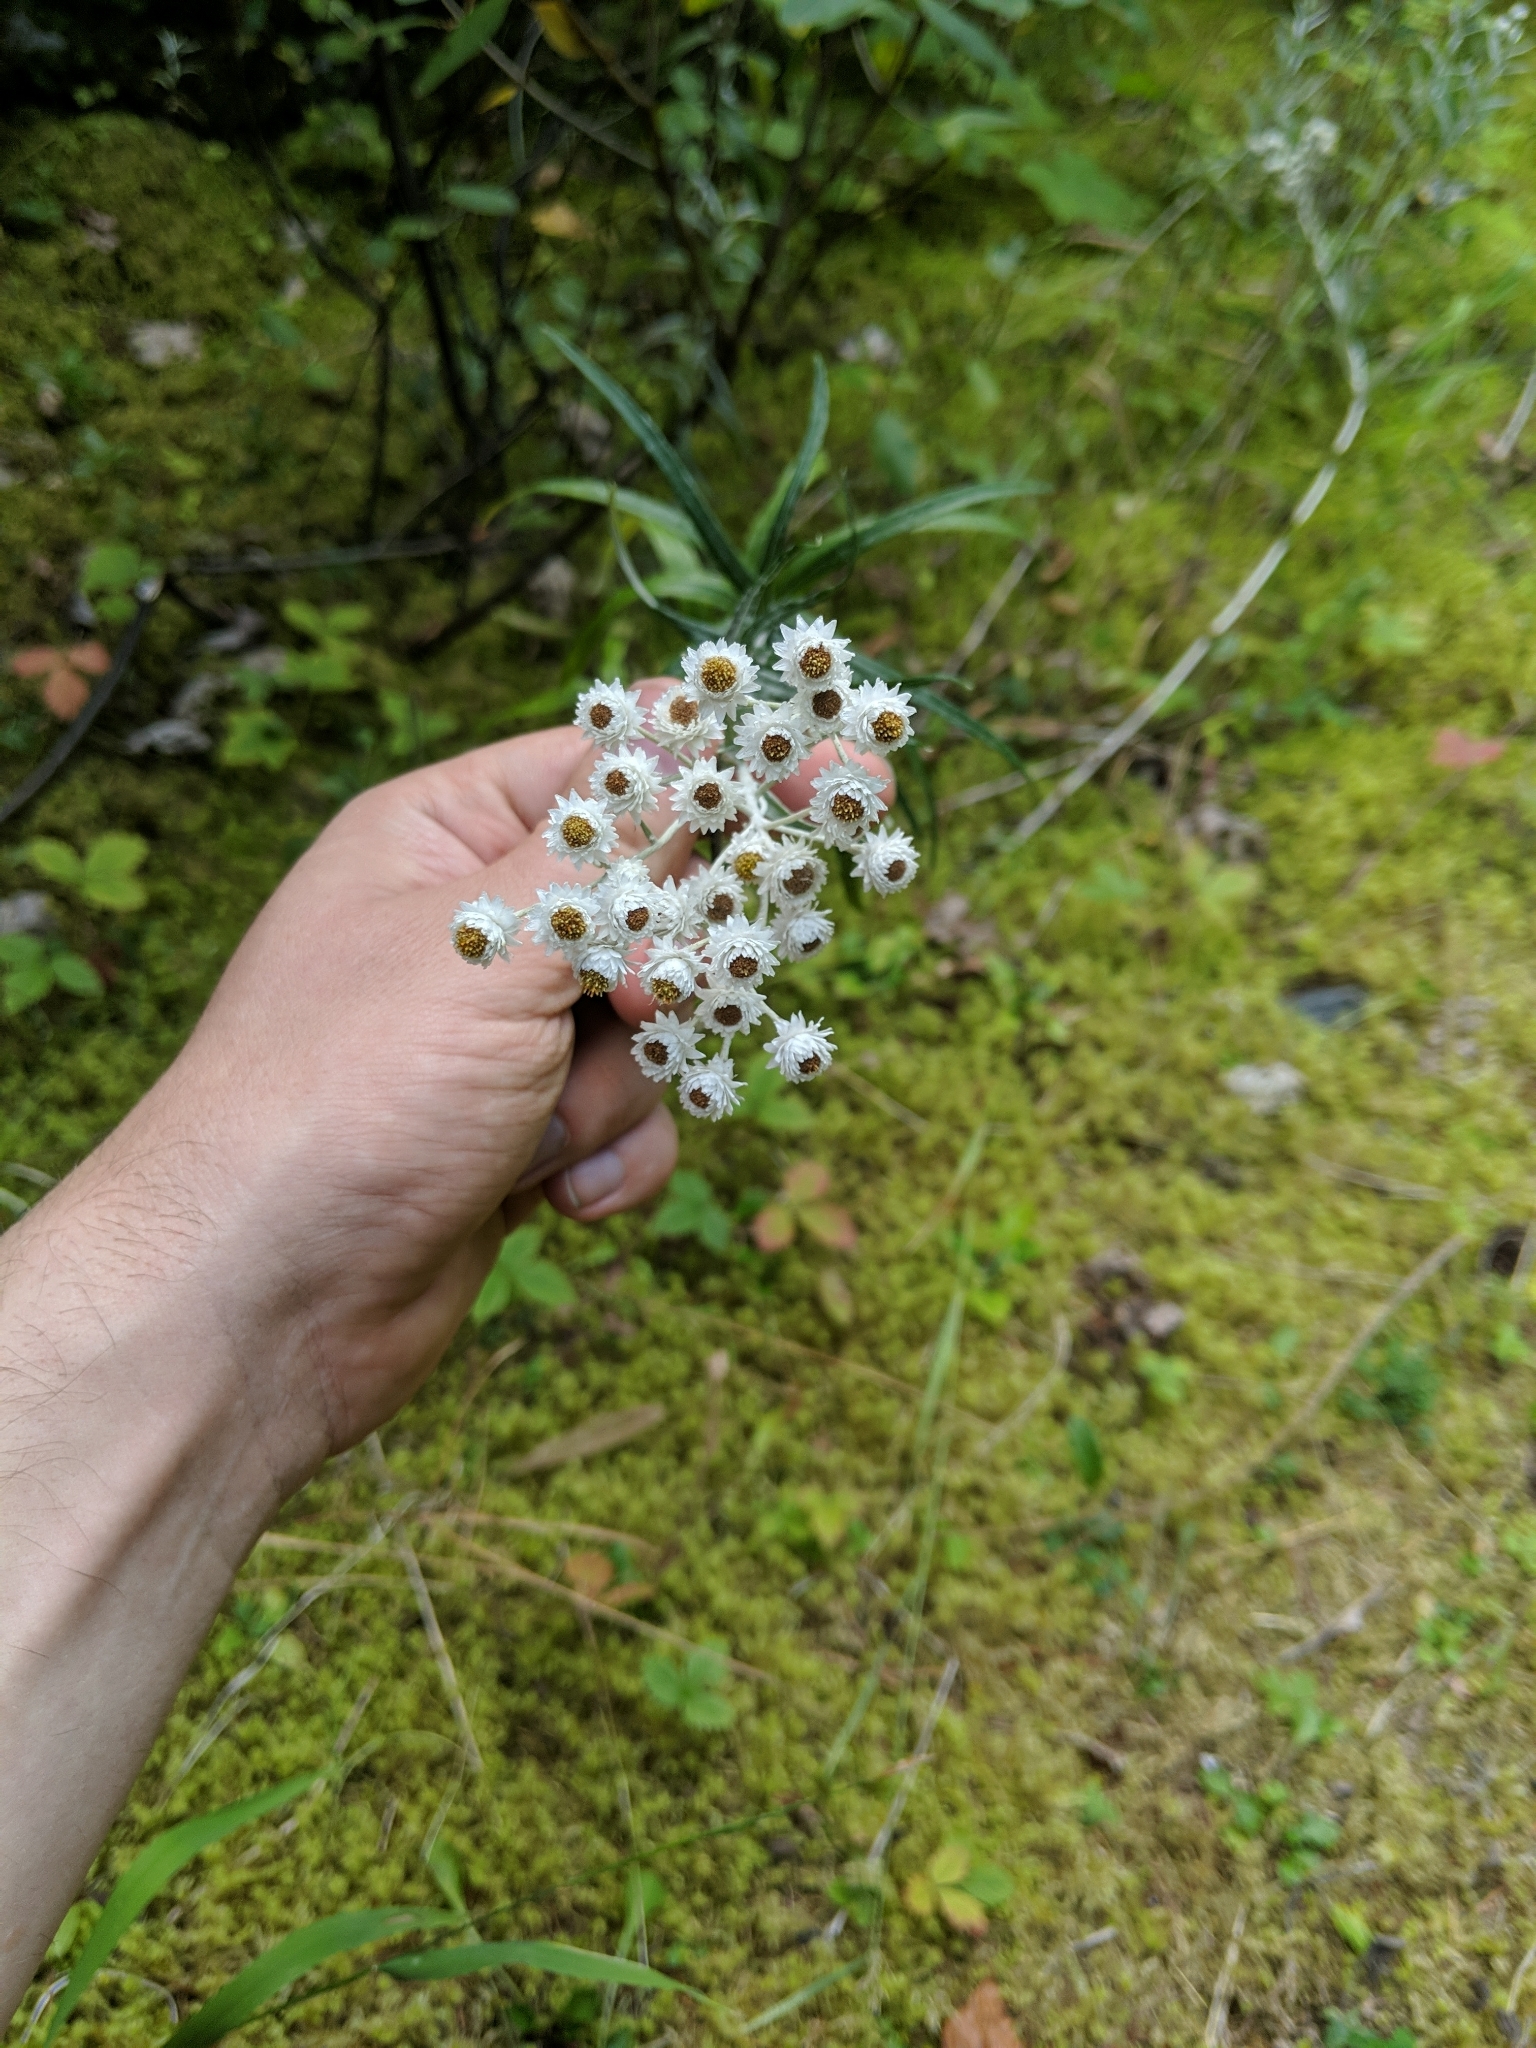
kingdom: Plantae
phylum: Tracheophyta
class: Magnoliopsida
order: Asterales
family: Asteraceae
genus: Anaphalis
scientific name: Anaphalis margaritacea
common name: Pearly everlasting
